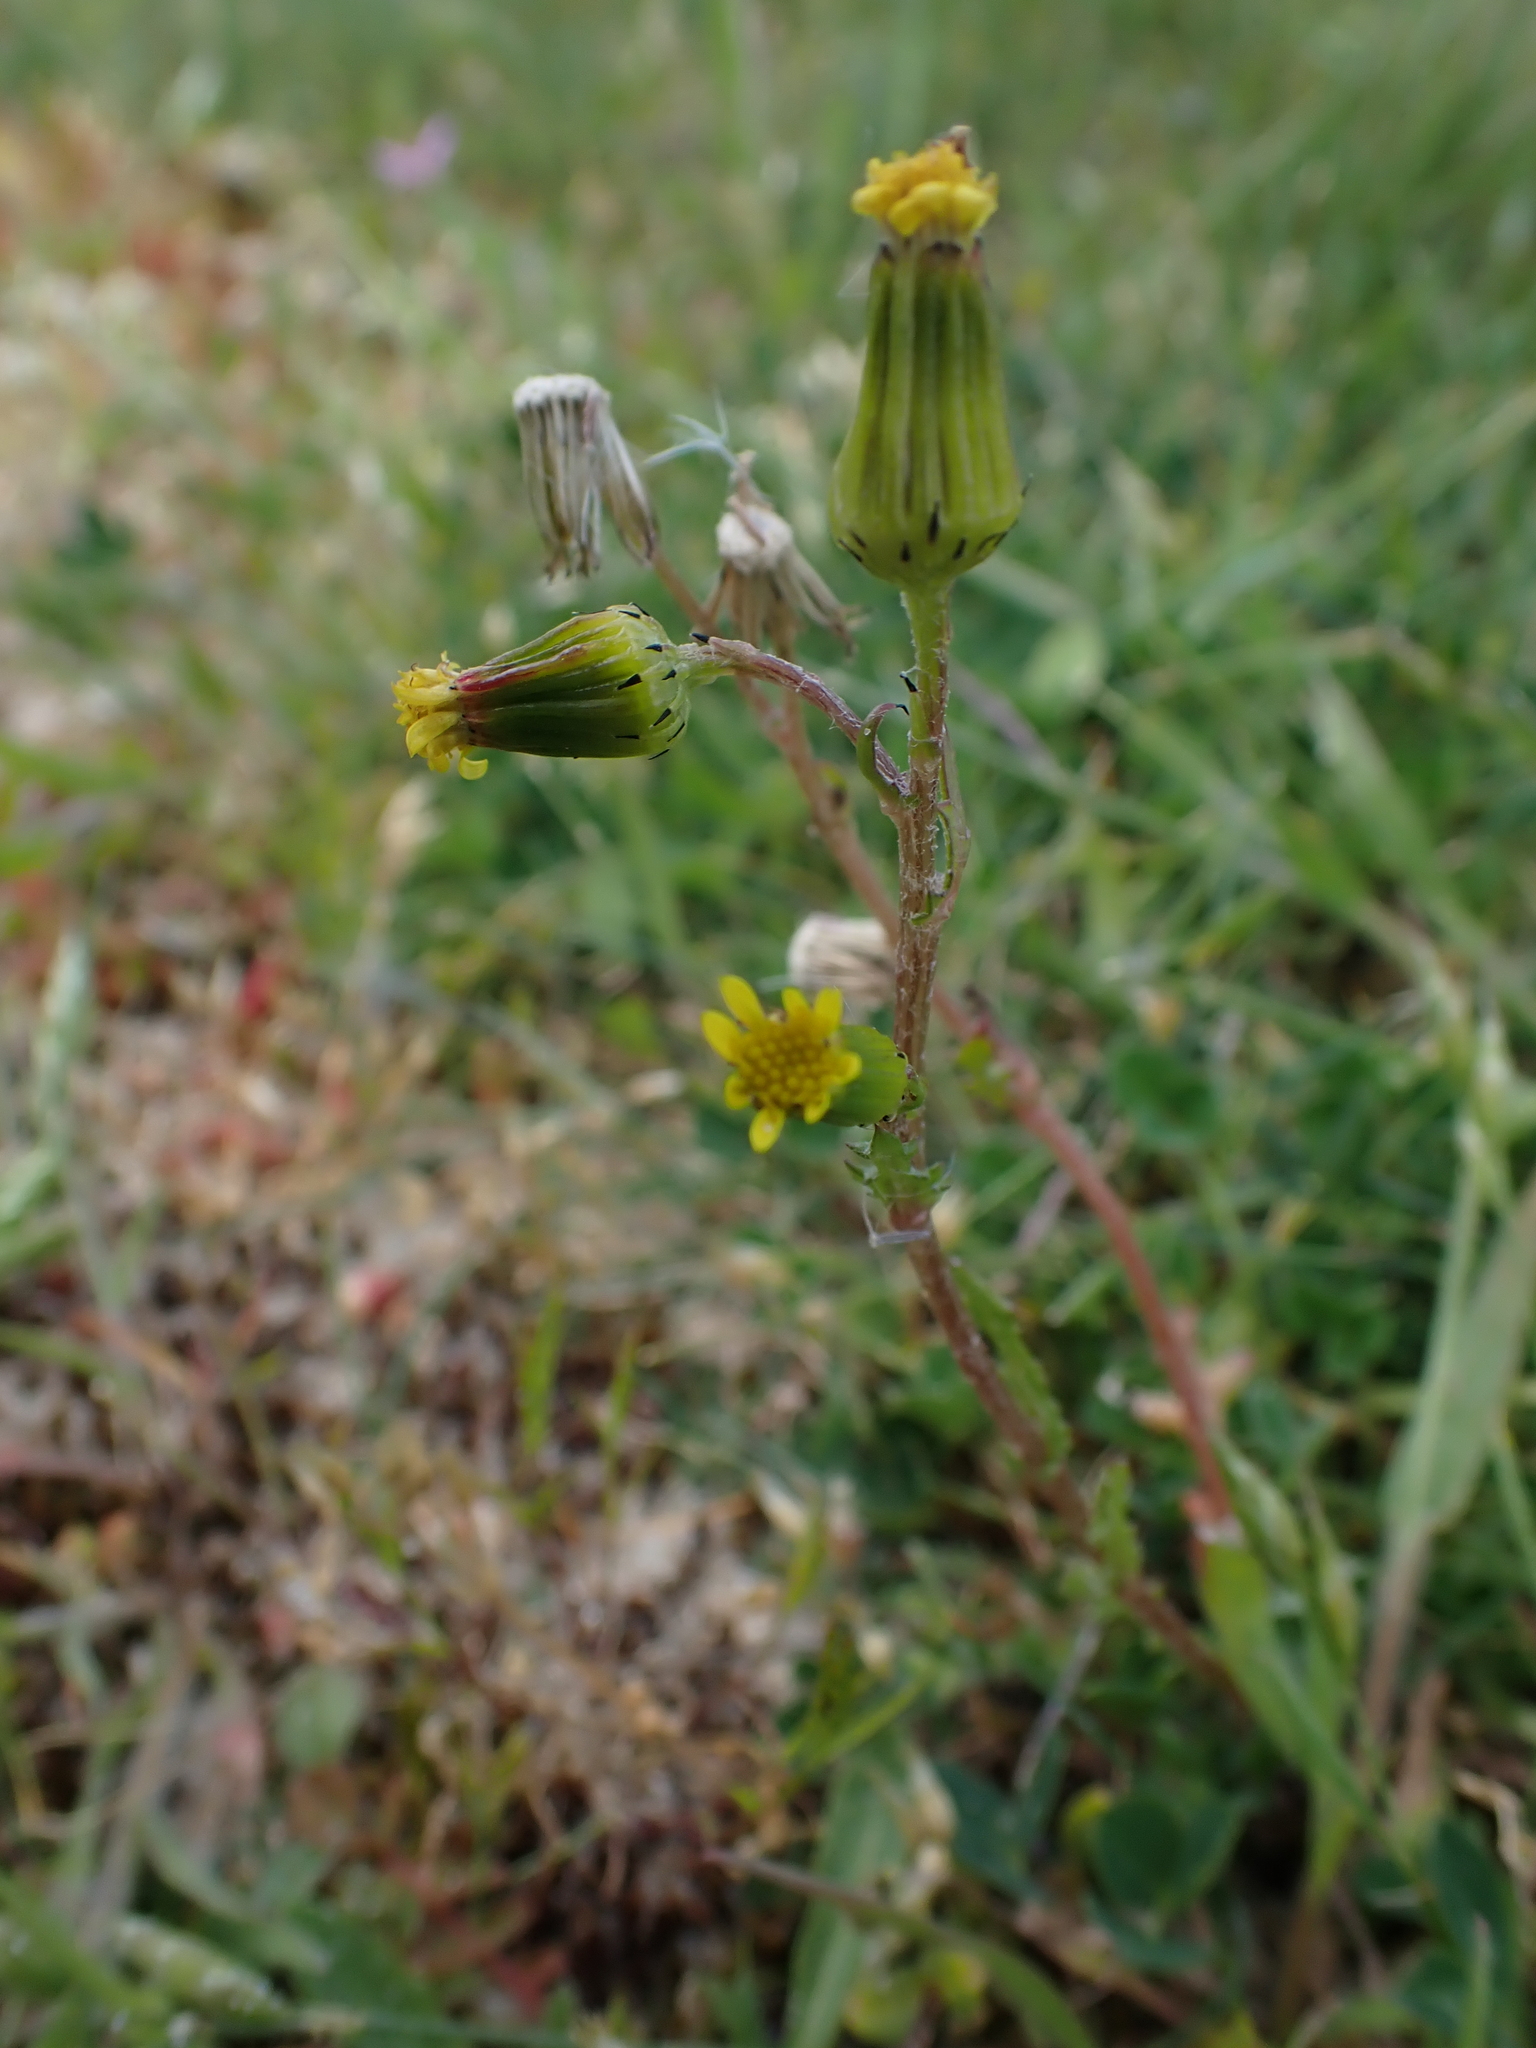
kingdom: Plantae
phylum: Tracheophyta
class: Magnoliopsida
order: Asterales
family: Asteraceae
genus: Senecio
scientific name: Senecio vulgaris
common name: Old-man-in-the-spring
